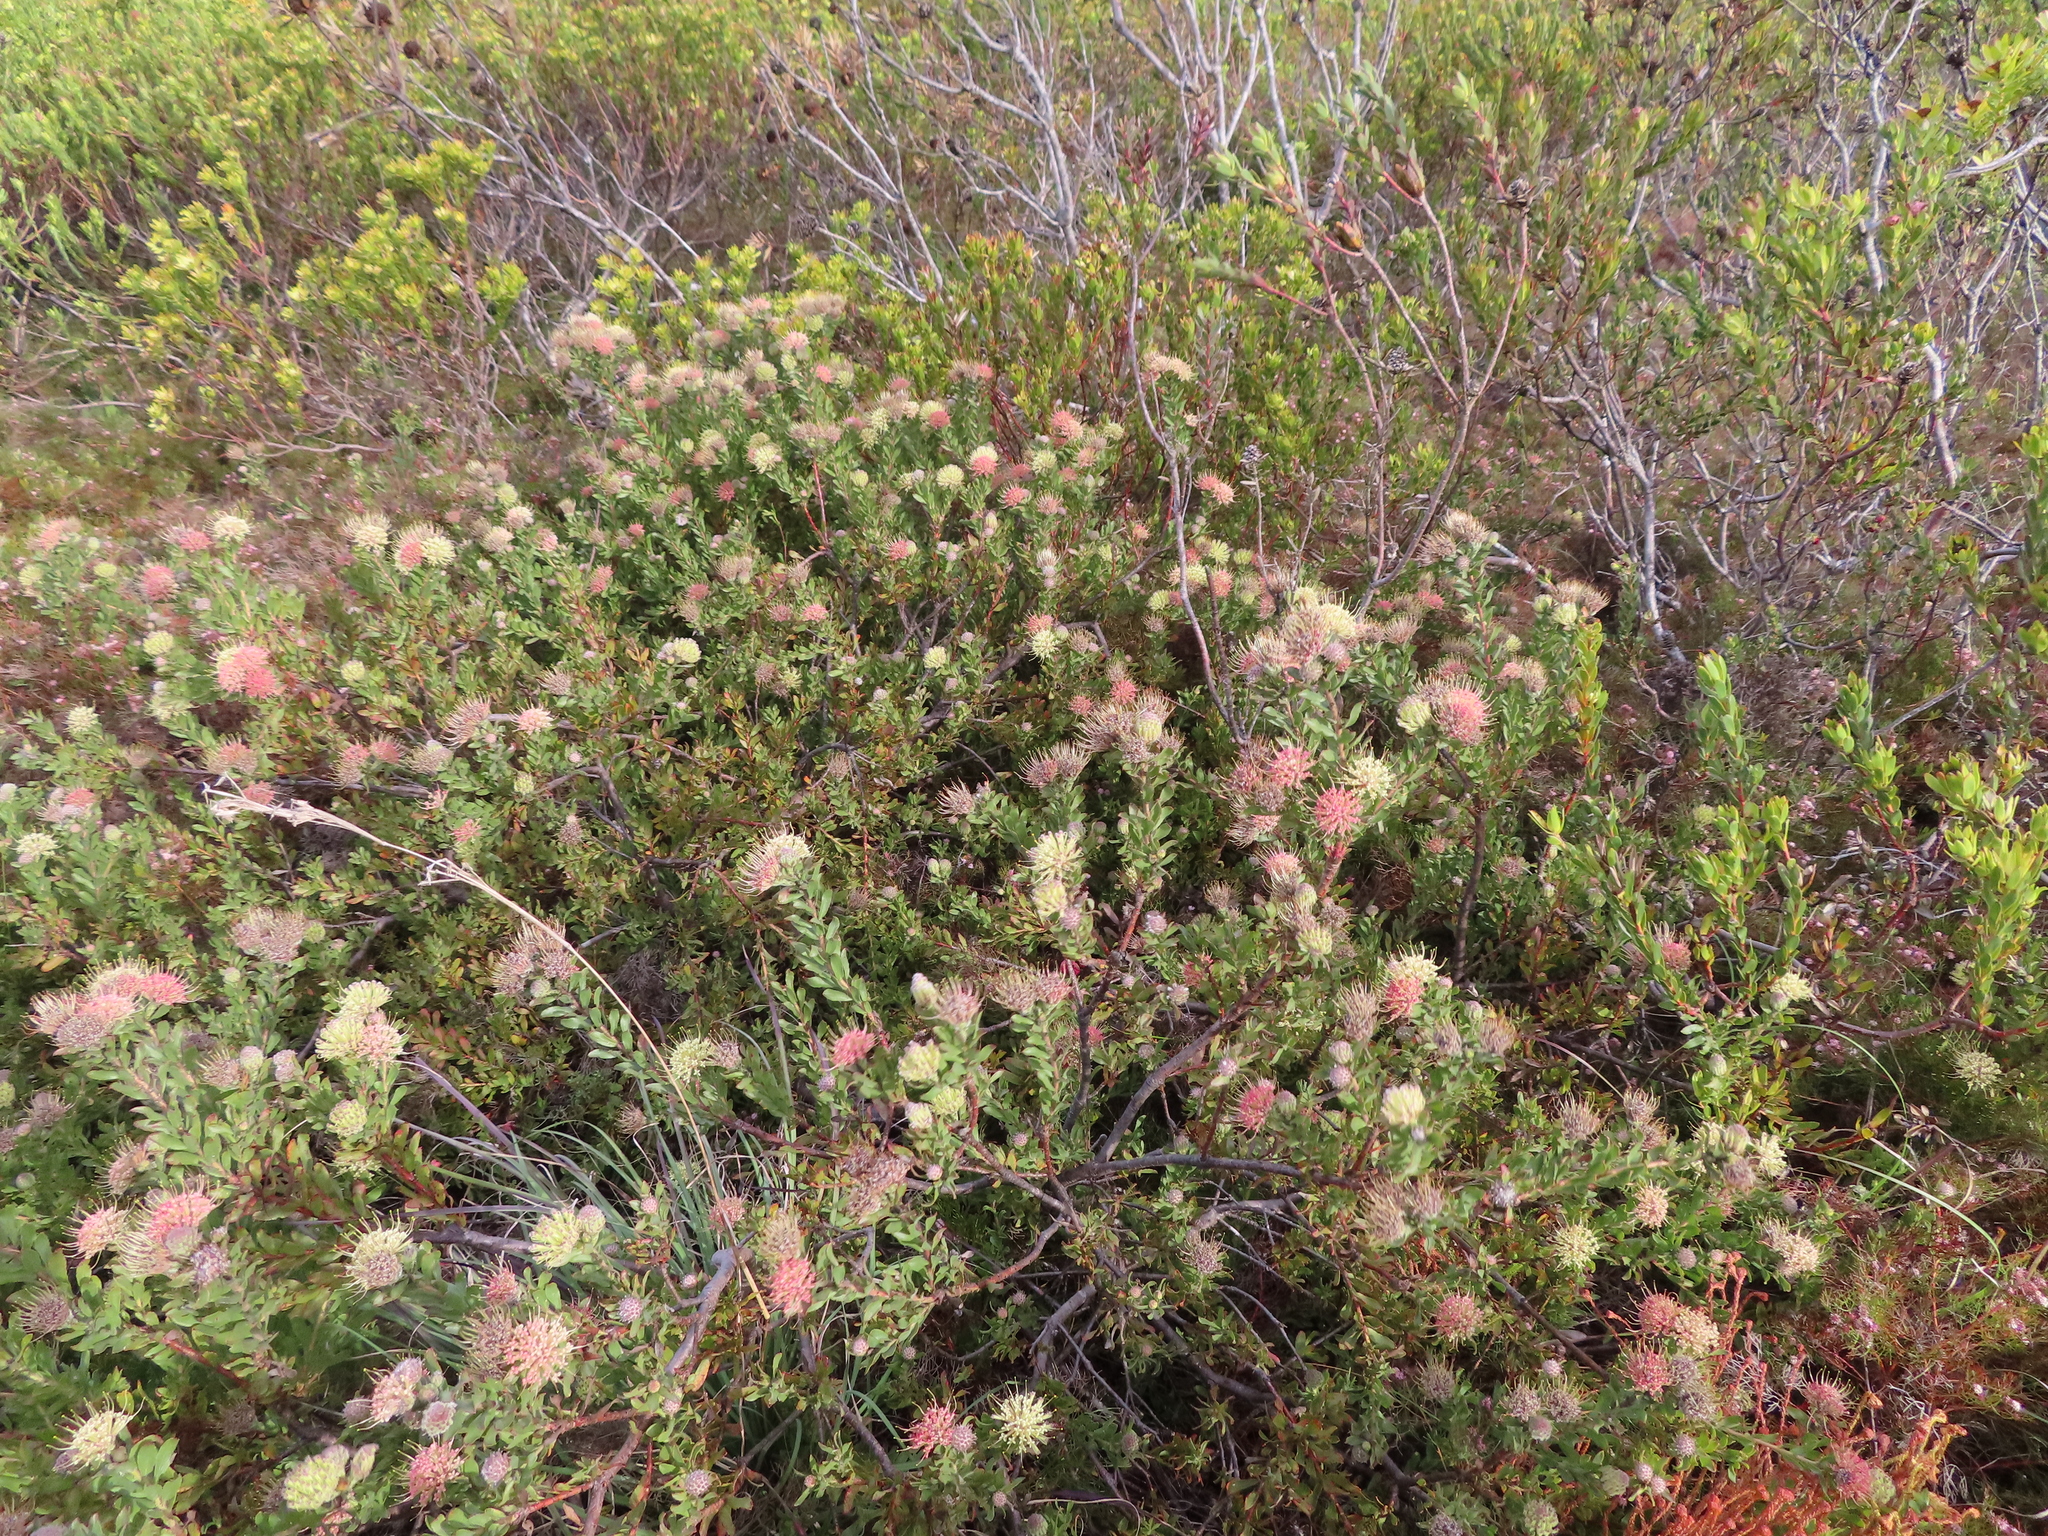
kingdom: Plantae
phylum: Tracheophyta
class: Magnoliopsida
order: Proteales
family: Proteaceae
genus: Leucospermum
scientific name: Leucospermum heterophyllum
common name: Trident pincushion
